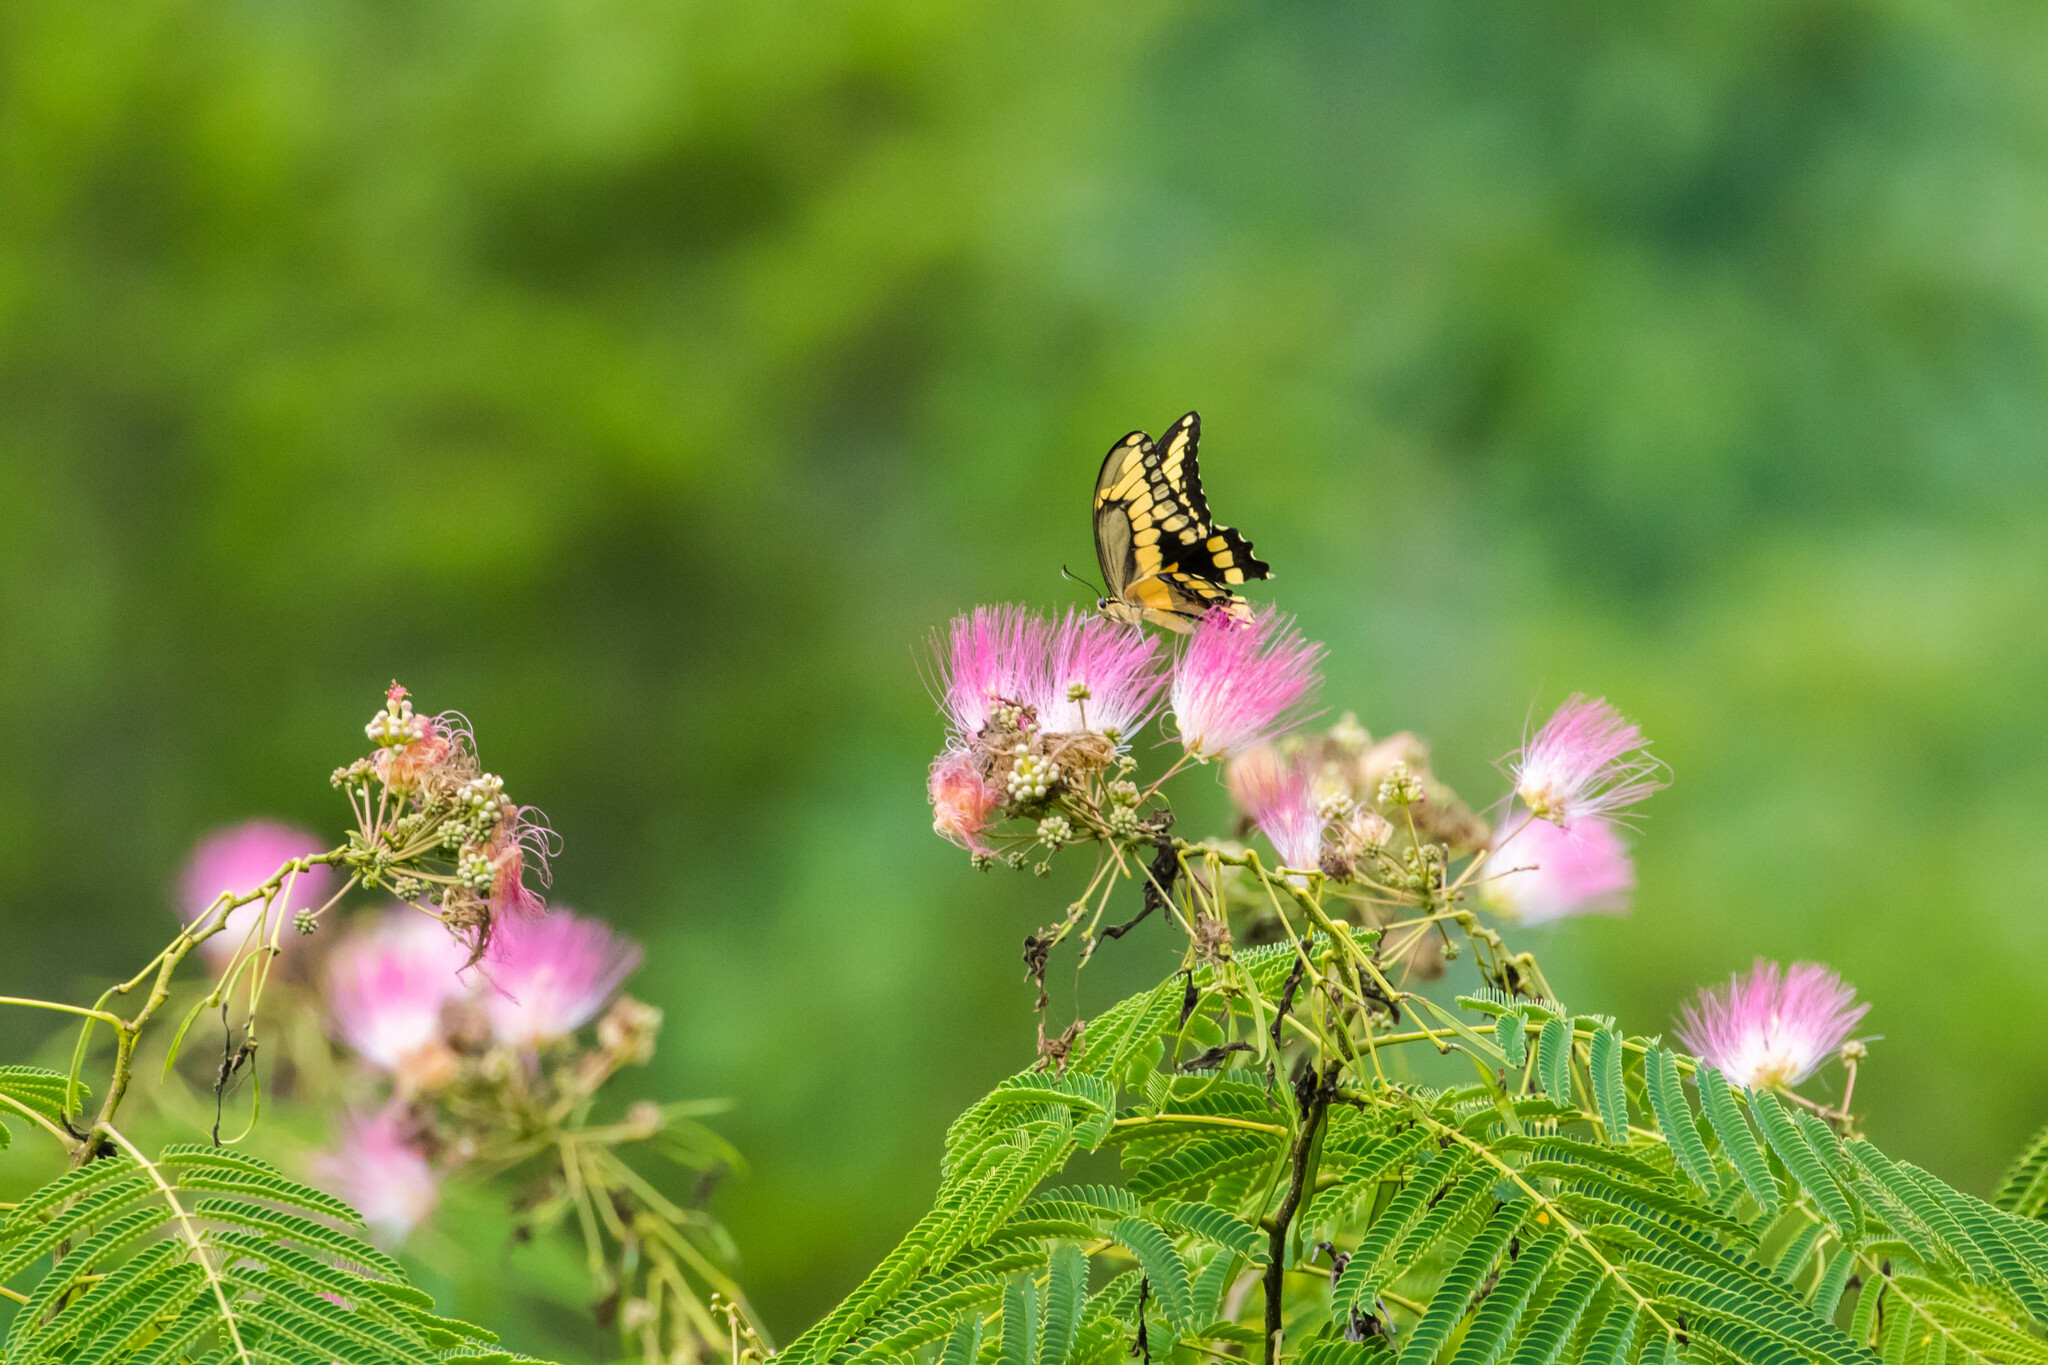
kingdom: Animalia
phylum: Arthropoda
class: Insecta
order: Lepidoptera
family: Papilionidae
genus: Papilio
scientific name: Papilio cresphontes
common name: Giant swallowtail
